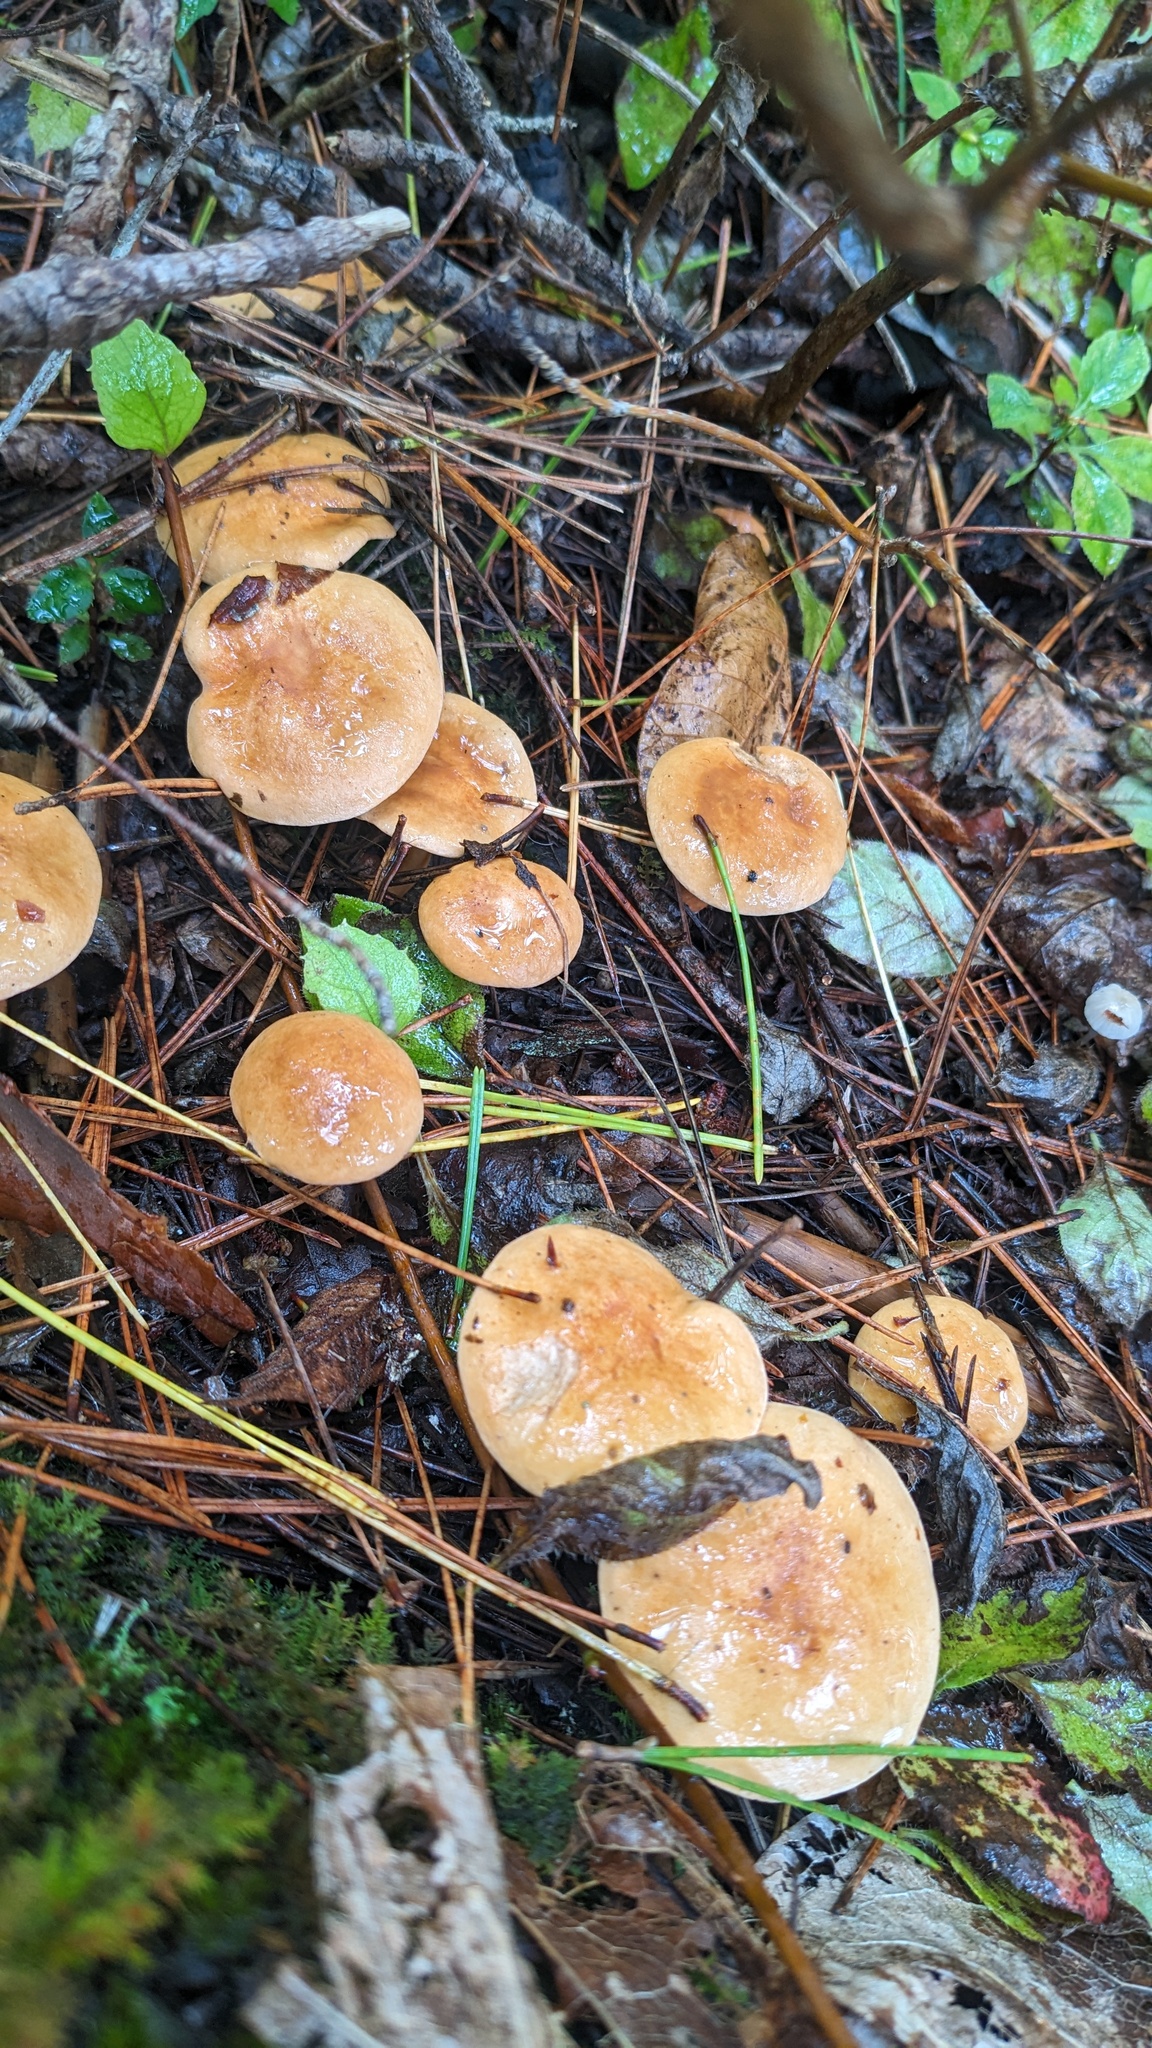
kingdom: Fungi
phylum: Basidiomycota
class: Agaricomycetes
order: Boletales
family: Suillaceae
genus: Suillus
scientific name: Suillus bovinus
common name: Bovine bolete
